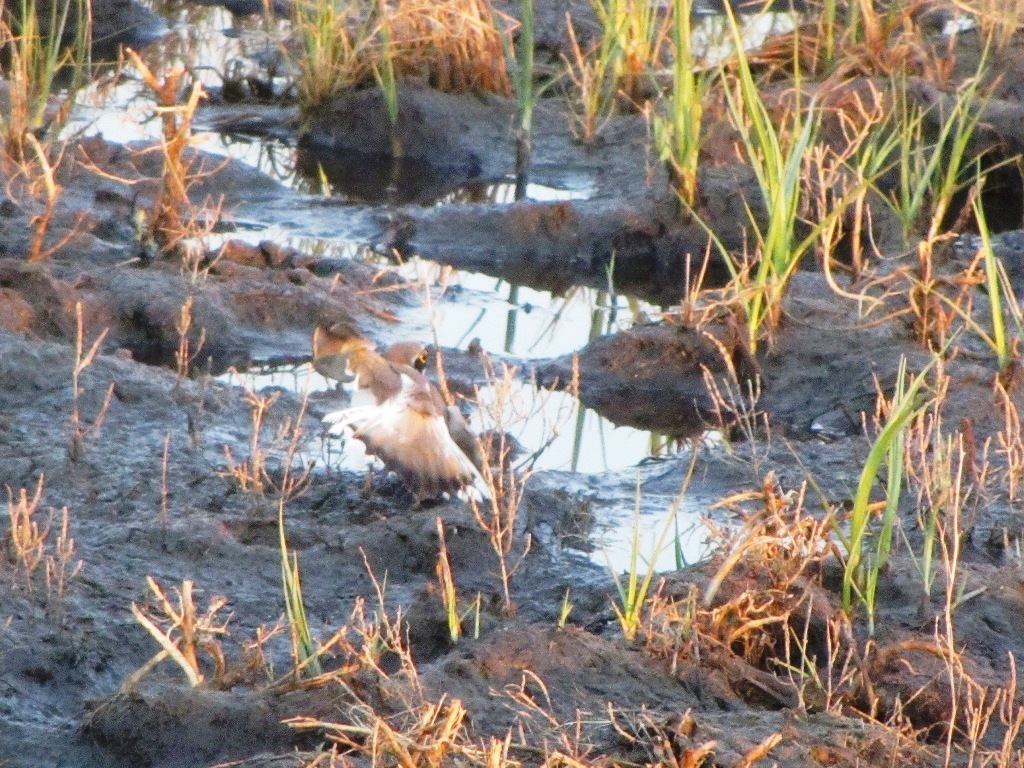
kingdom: Animalia
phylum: Chordata
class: Aves
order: Charadriiformes
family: Charadriidae
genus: Charadrius
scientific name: Charadrius dubius
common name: Little ringed plover
